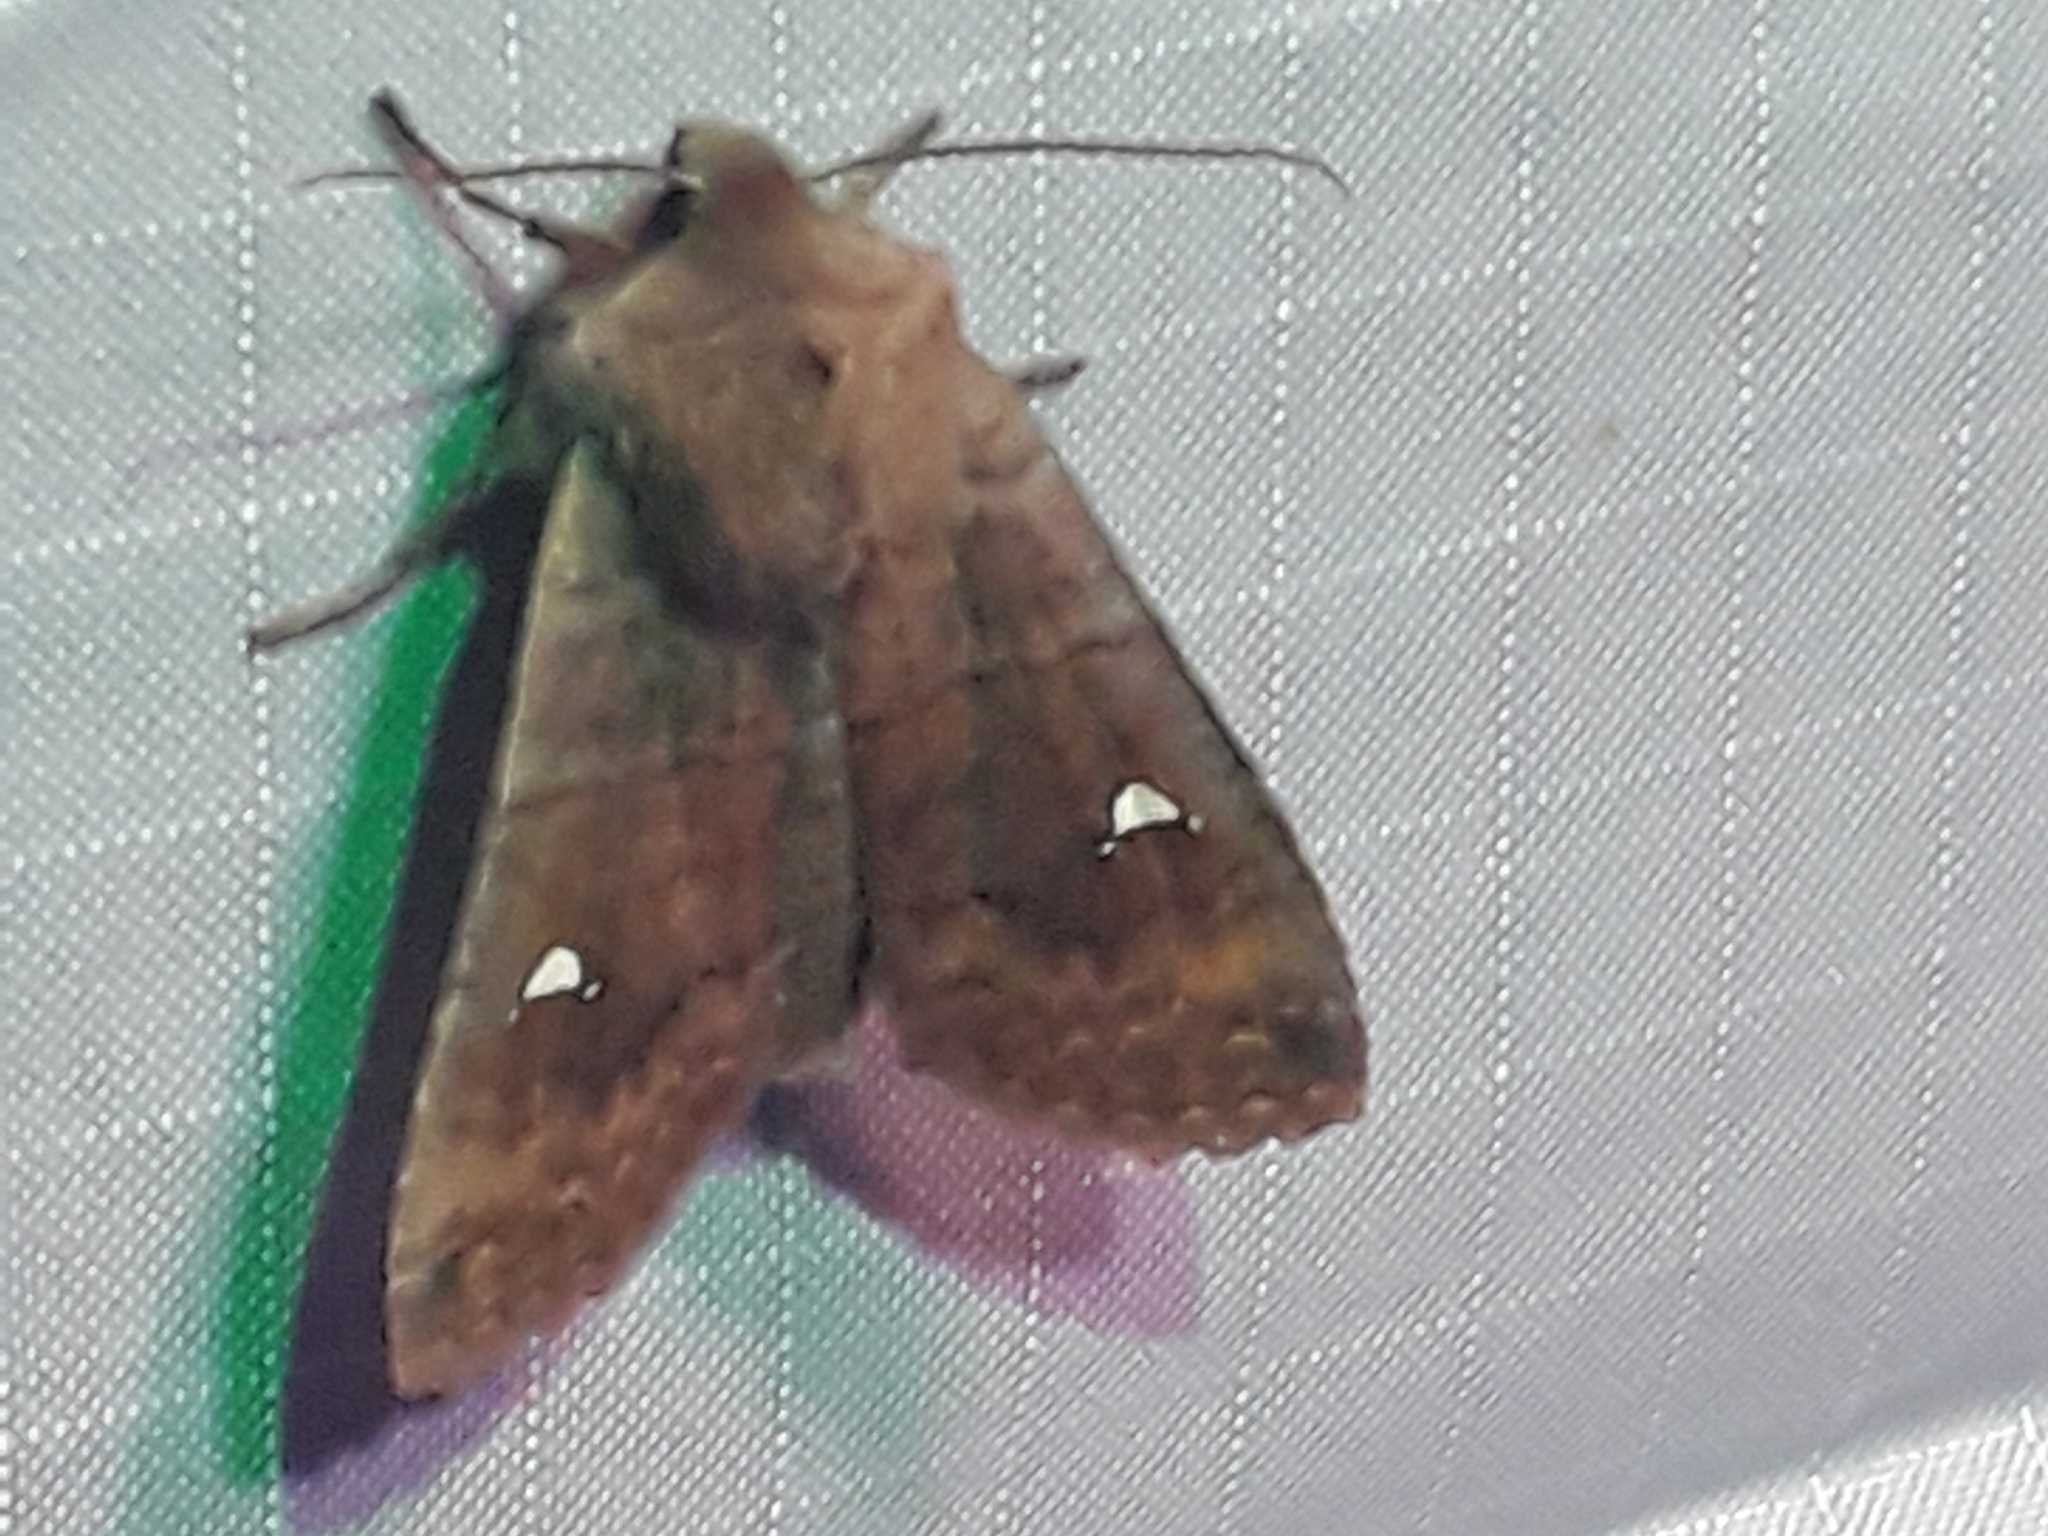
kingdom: Animalia
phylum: Arthropoda
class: Insecta
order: Lepidoptera
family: Noctuidae
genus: Eupsilia
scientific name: Eupsilia transversa
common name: Satellite
